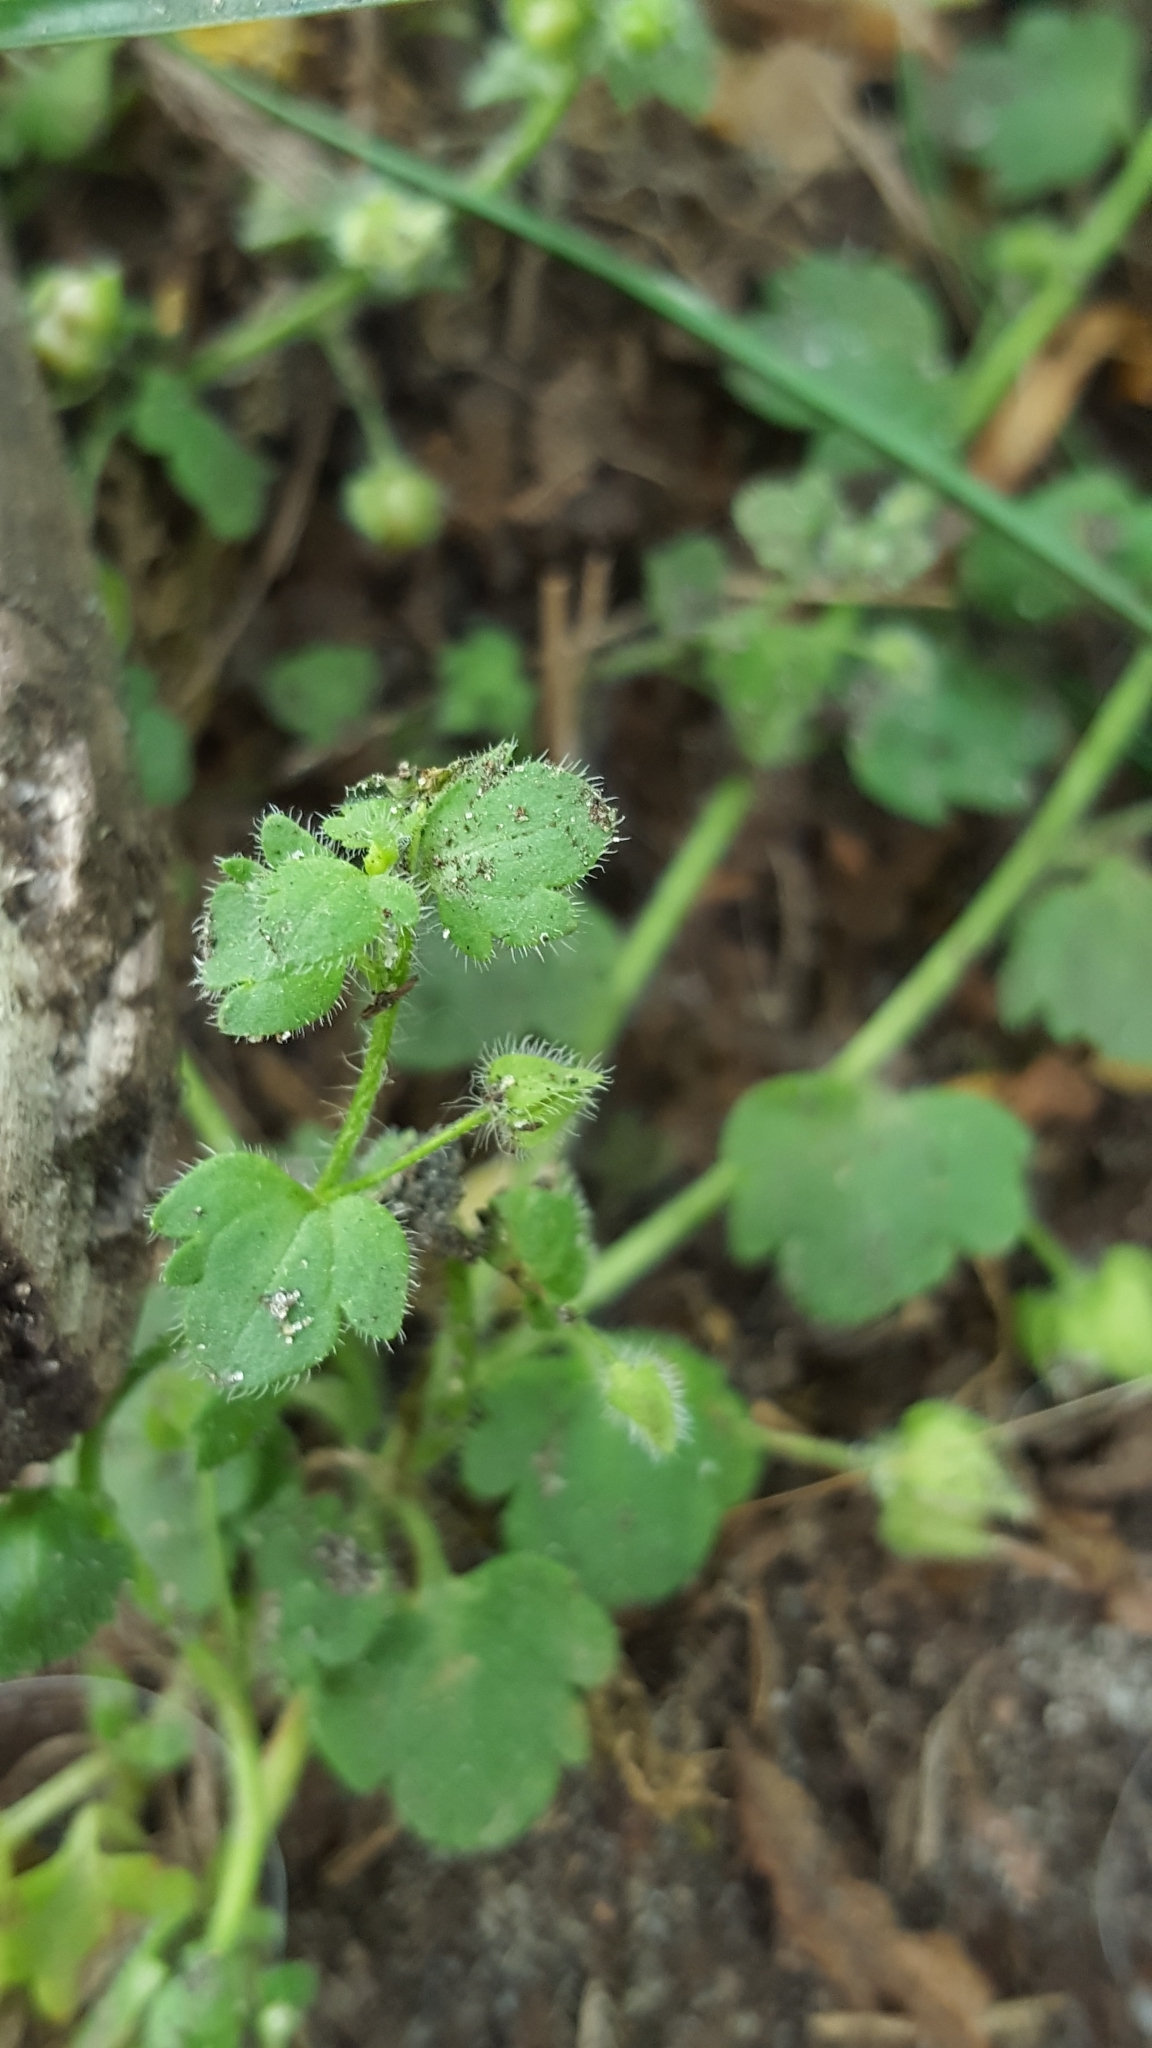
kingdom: Plantae
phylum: Tracheophyta
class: Magnoliopsida
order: Lamiales
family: Plantaginaceae
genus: Veronica
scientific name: Veronica sublobata
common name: False ivy-leaved speedwell
